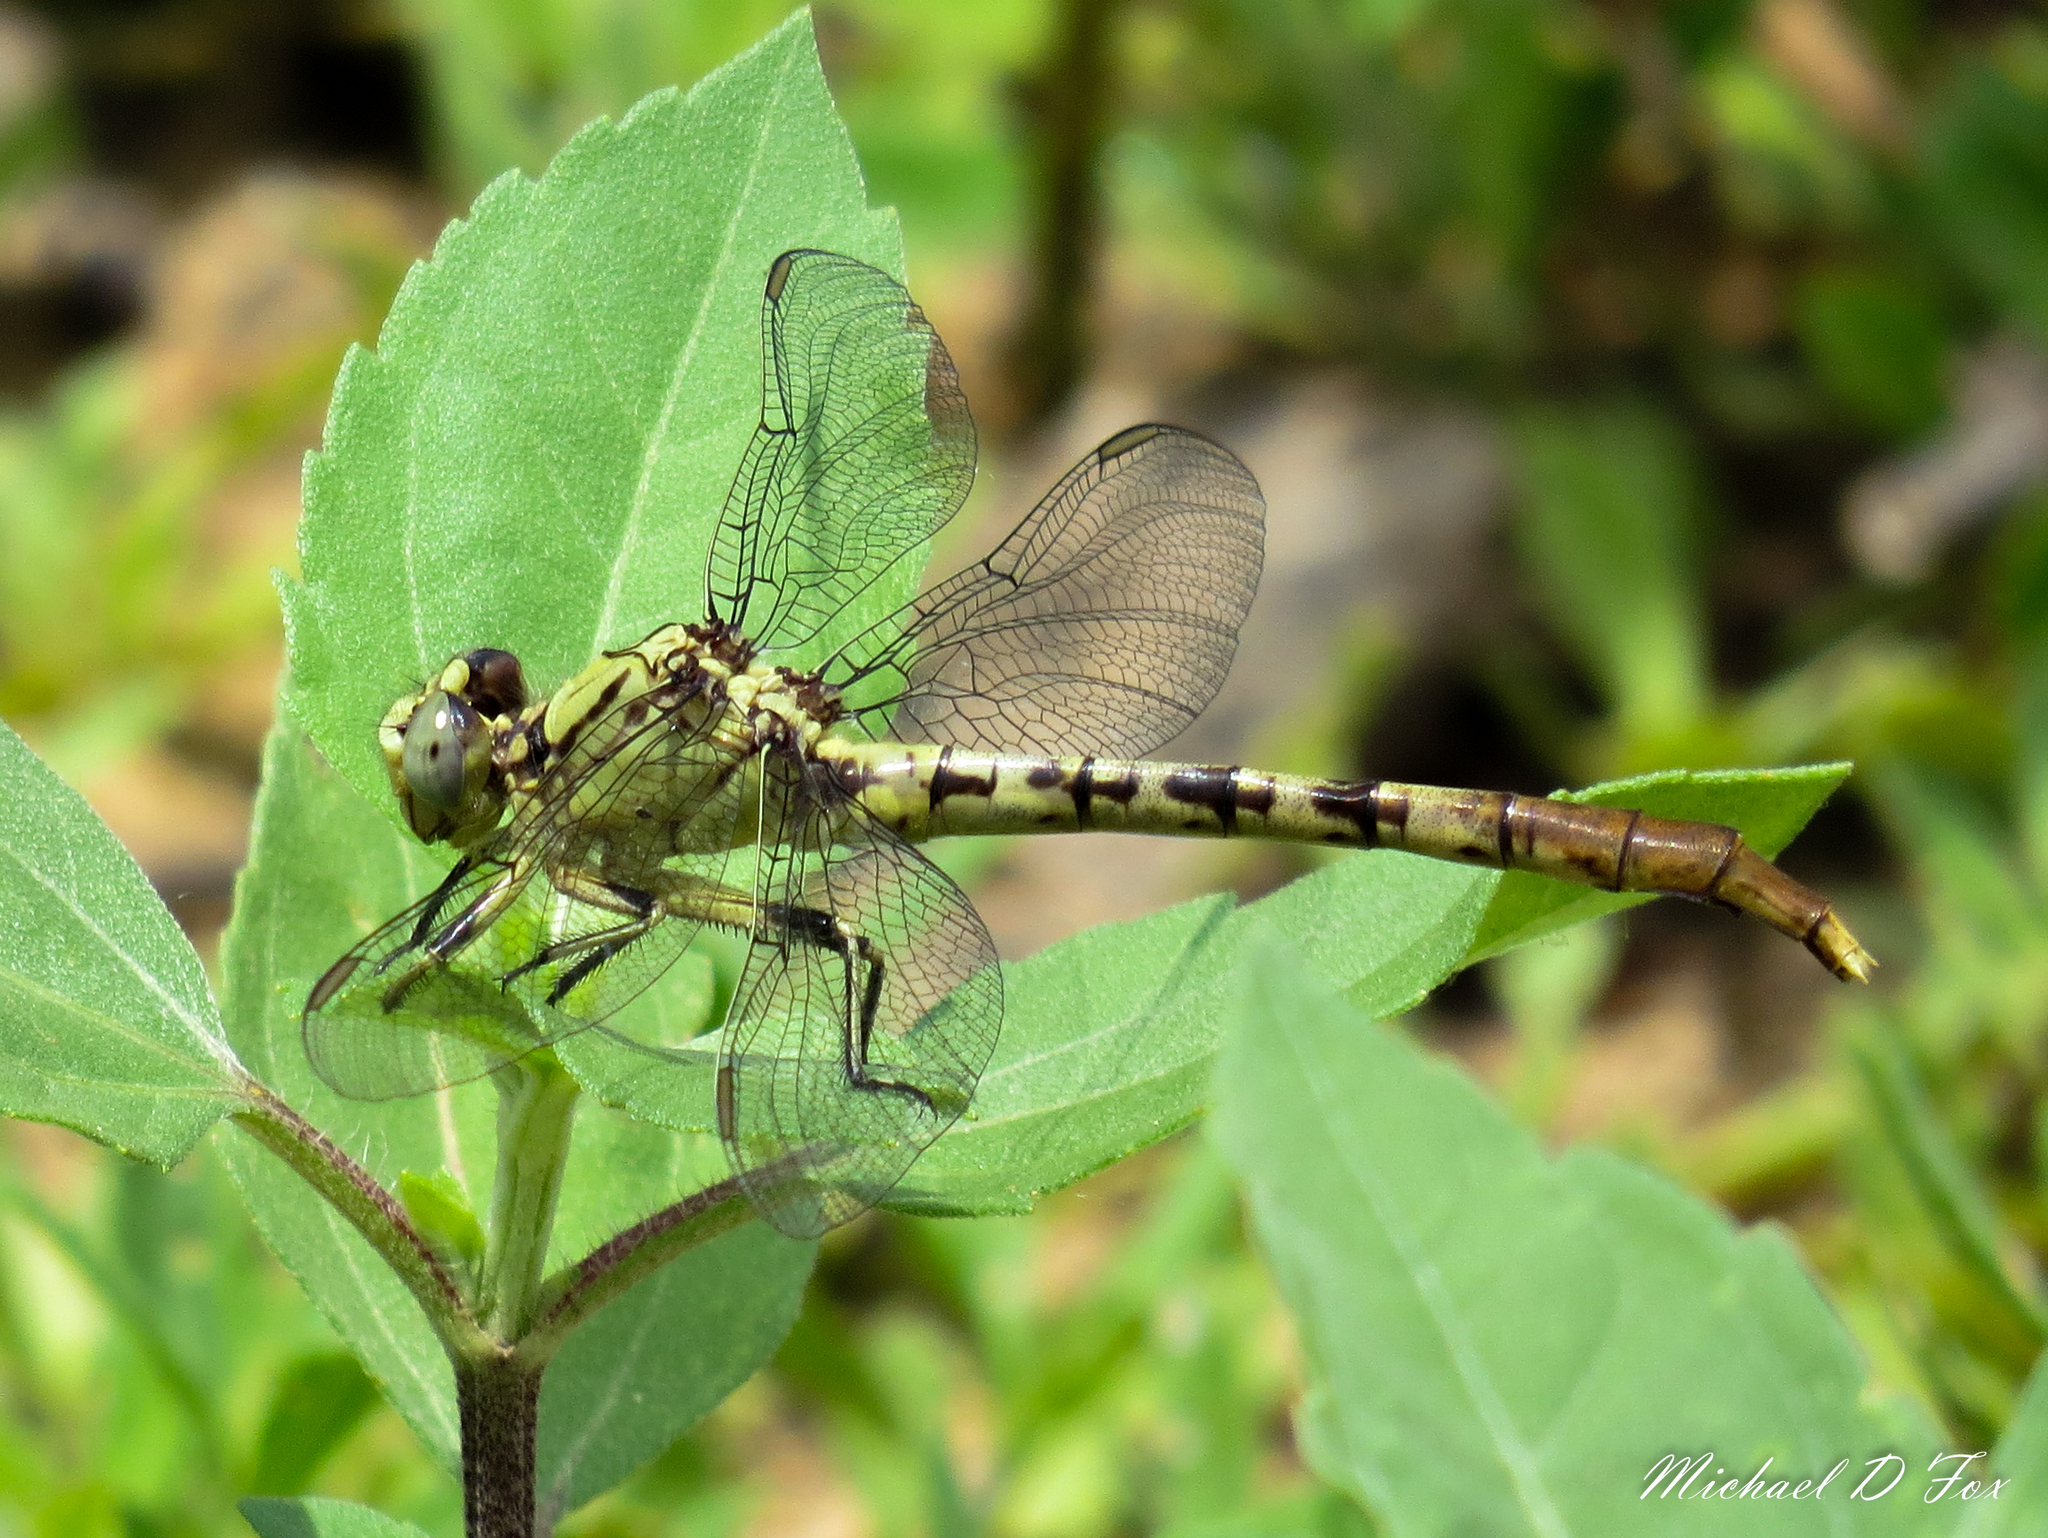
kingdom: Animalia
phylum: Arthropoda
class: Insecta
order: Odonata
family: Gomphidae
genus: Arigomphus
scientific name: Arigomphus submedianus
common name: Jade clubtail
